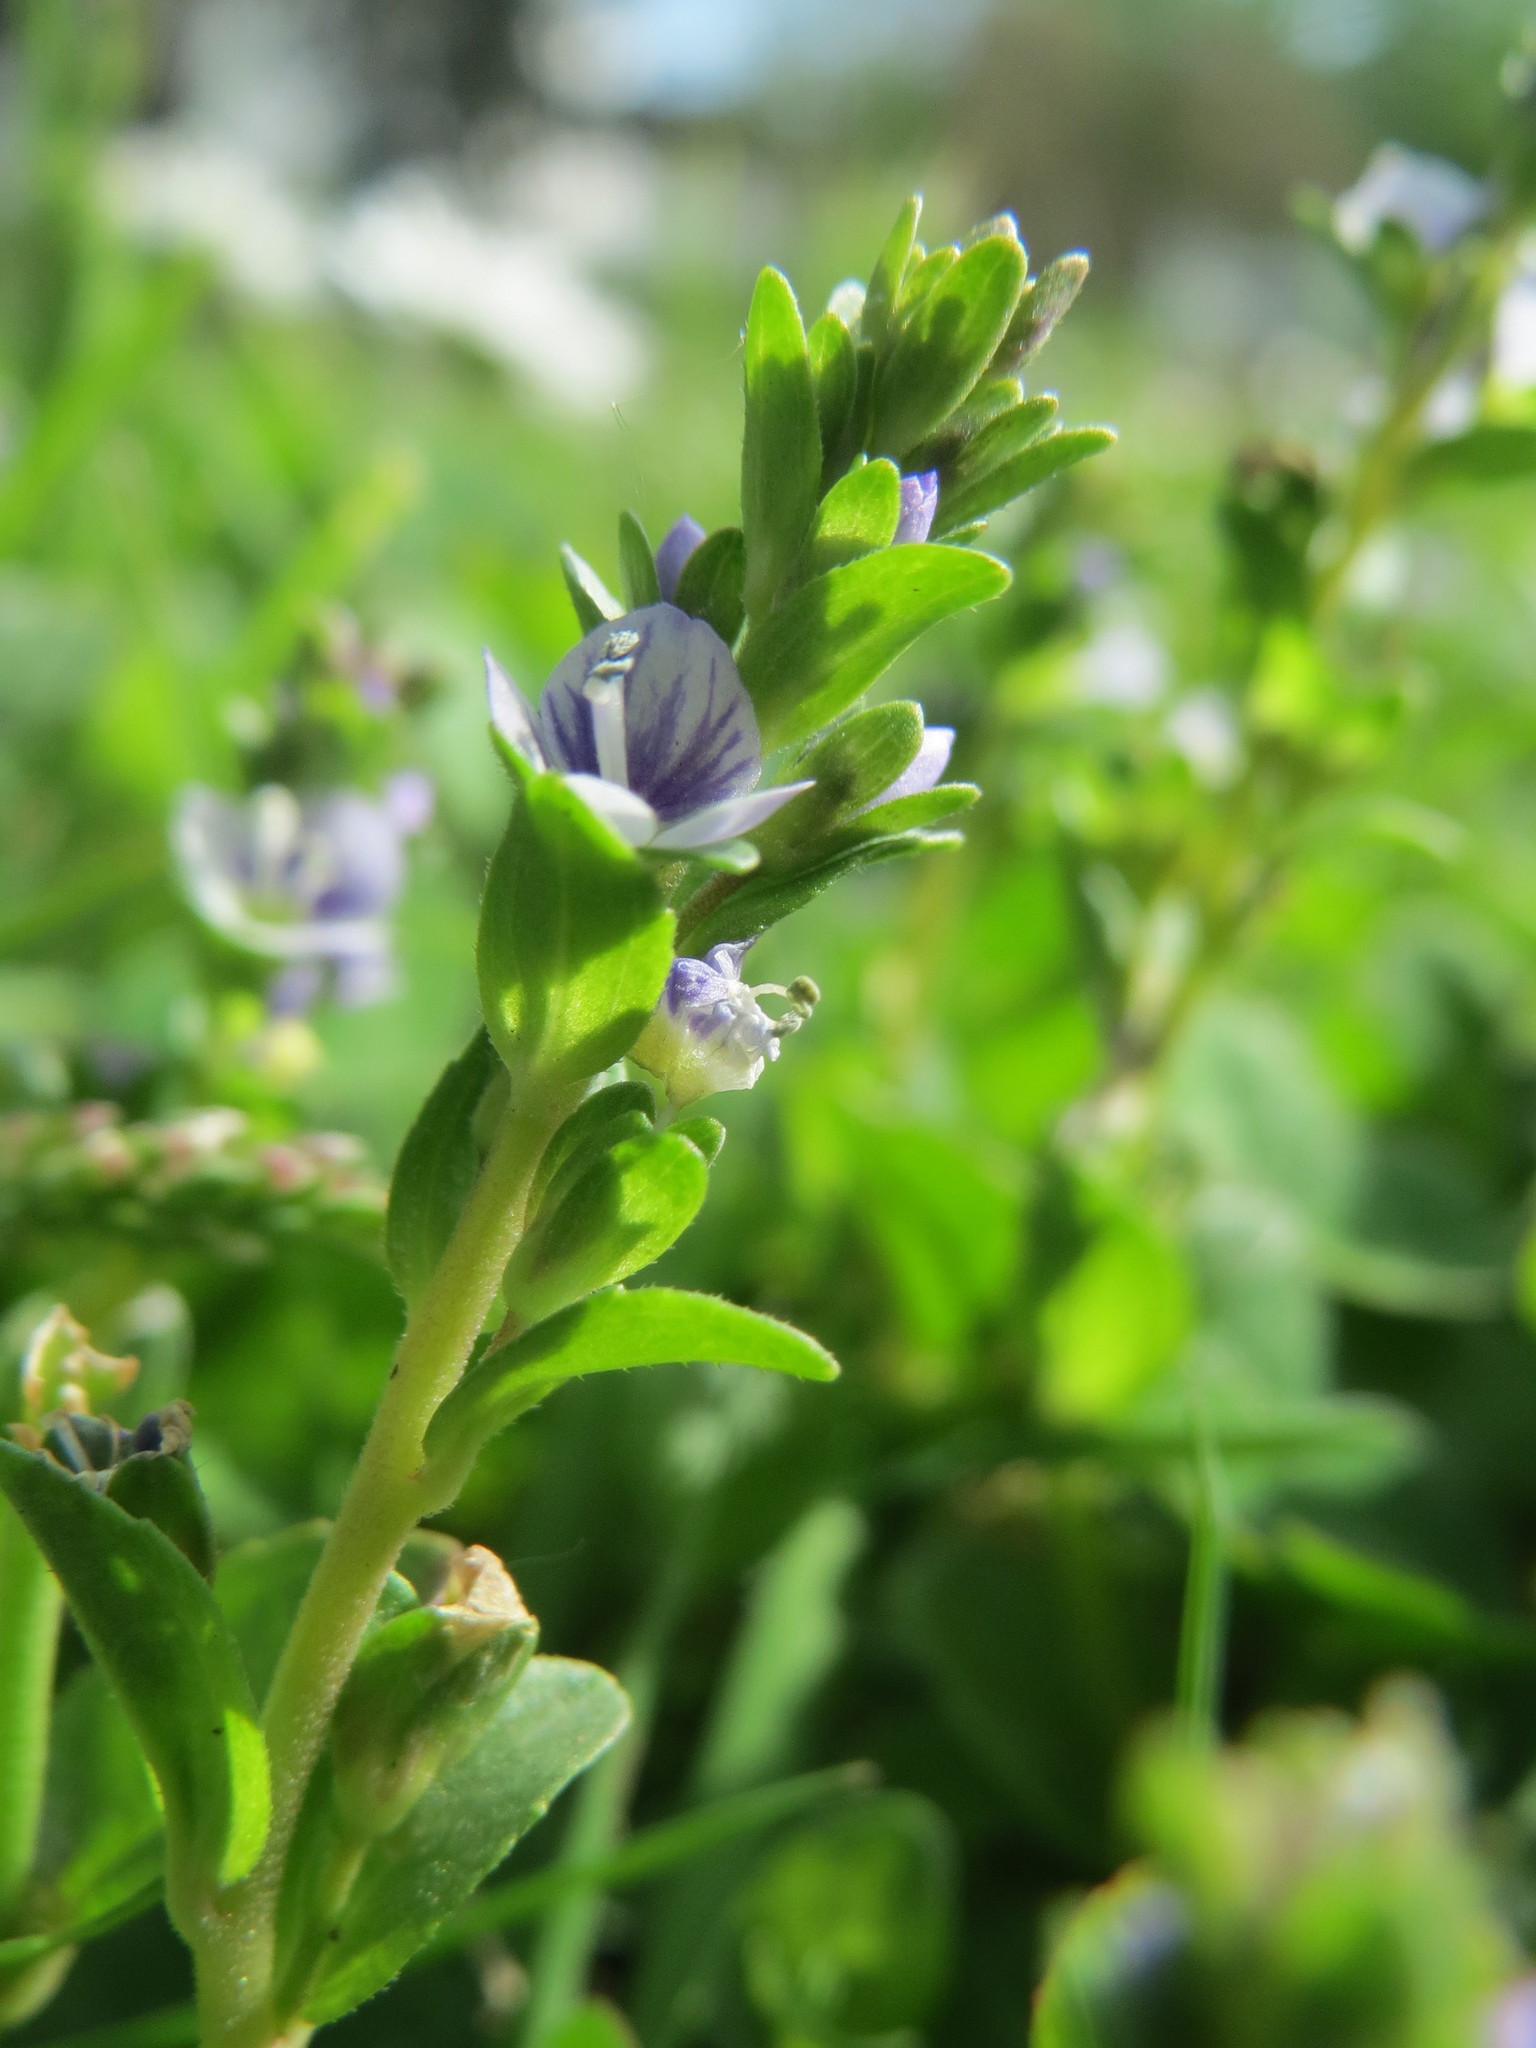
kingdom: Plantae
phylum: Tracheophyta
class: Magnoliopsida
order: Lamiales
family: Plantaginaceae
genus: Veronica
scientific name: Veronica serpyllifolia
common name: Thyme-leaved speedwell
